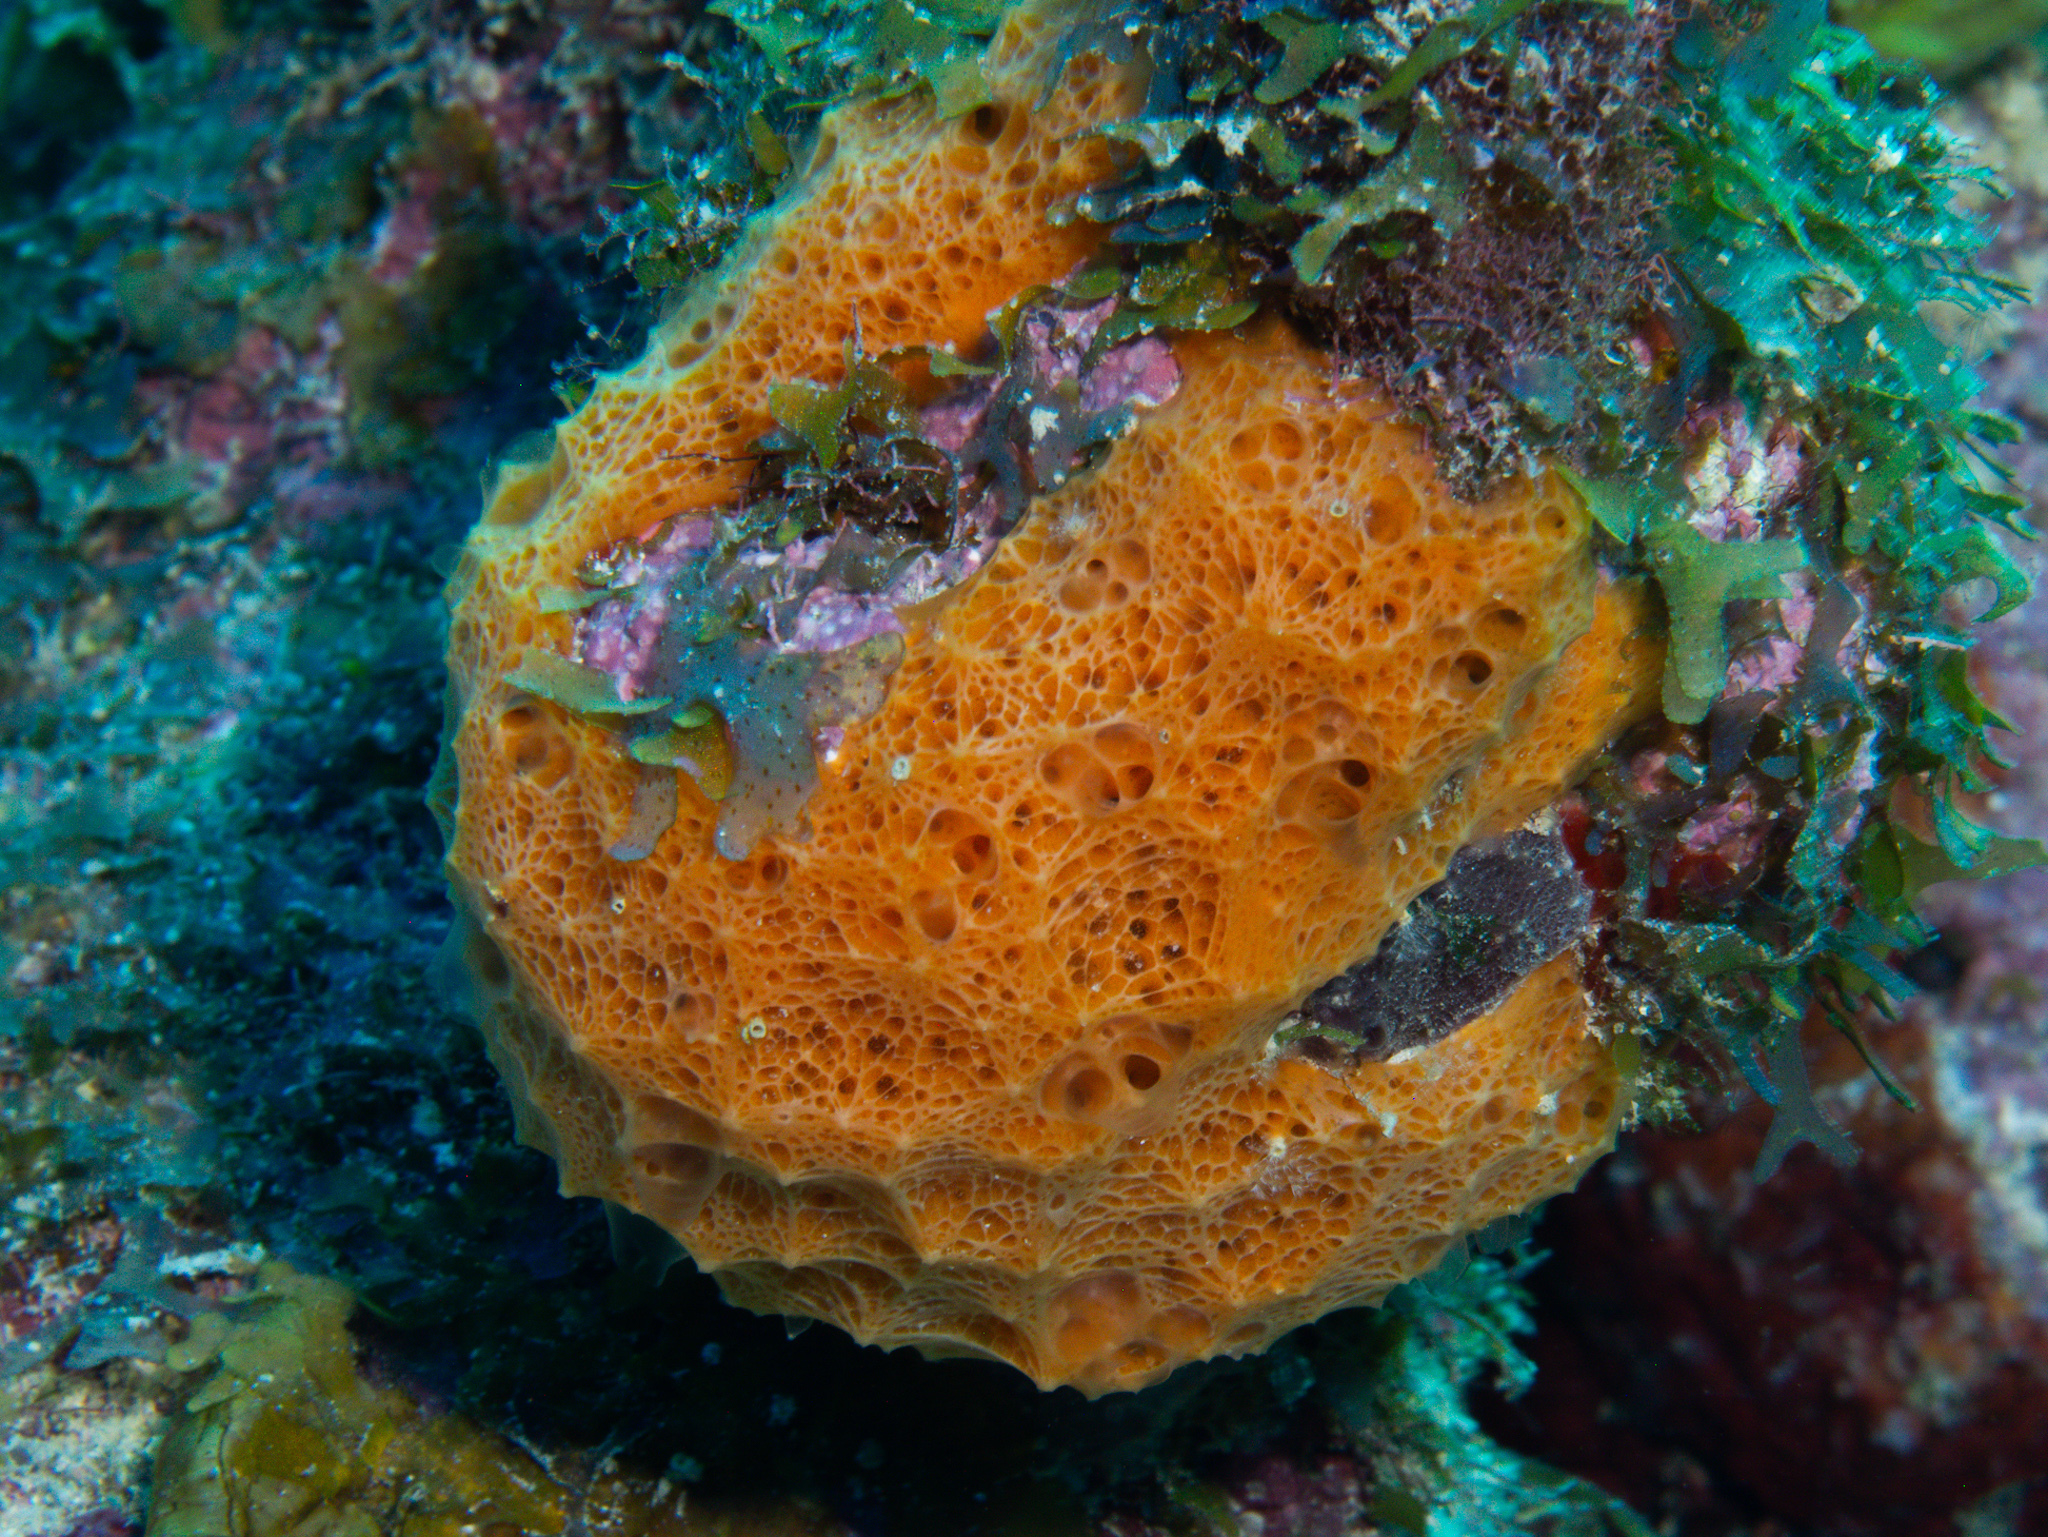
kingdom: Animalia
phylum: Porifera
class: Demospongiae
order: Scopalinida
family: Scopalinidae
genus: Scopalina
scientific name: Scopalina ruetzleri
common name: Orange lumpy encrusting sponge
